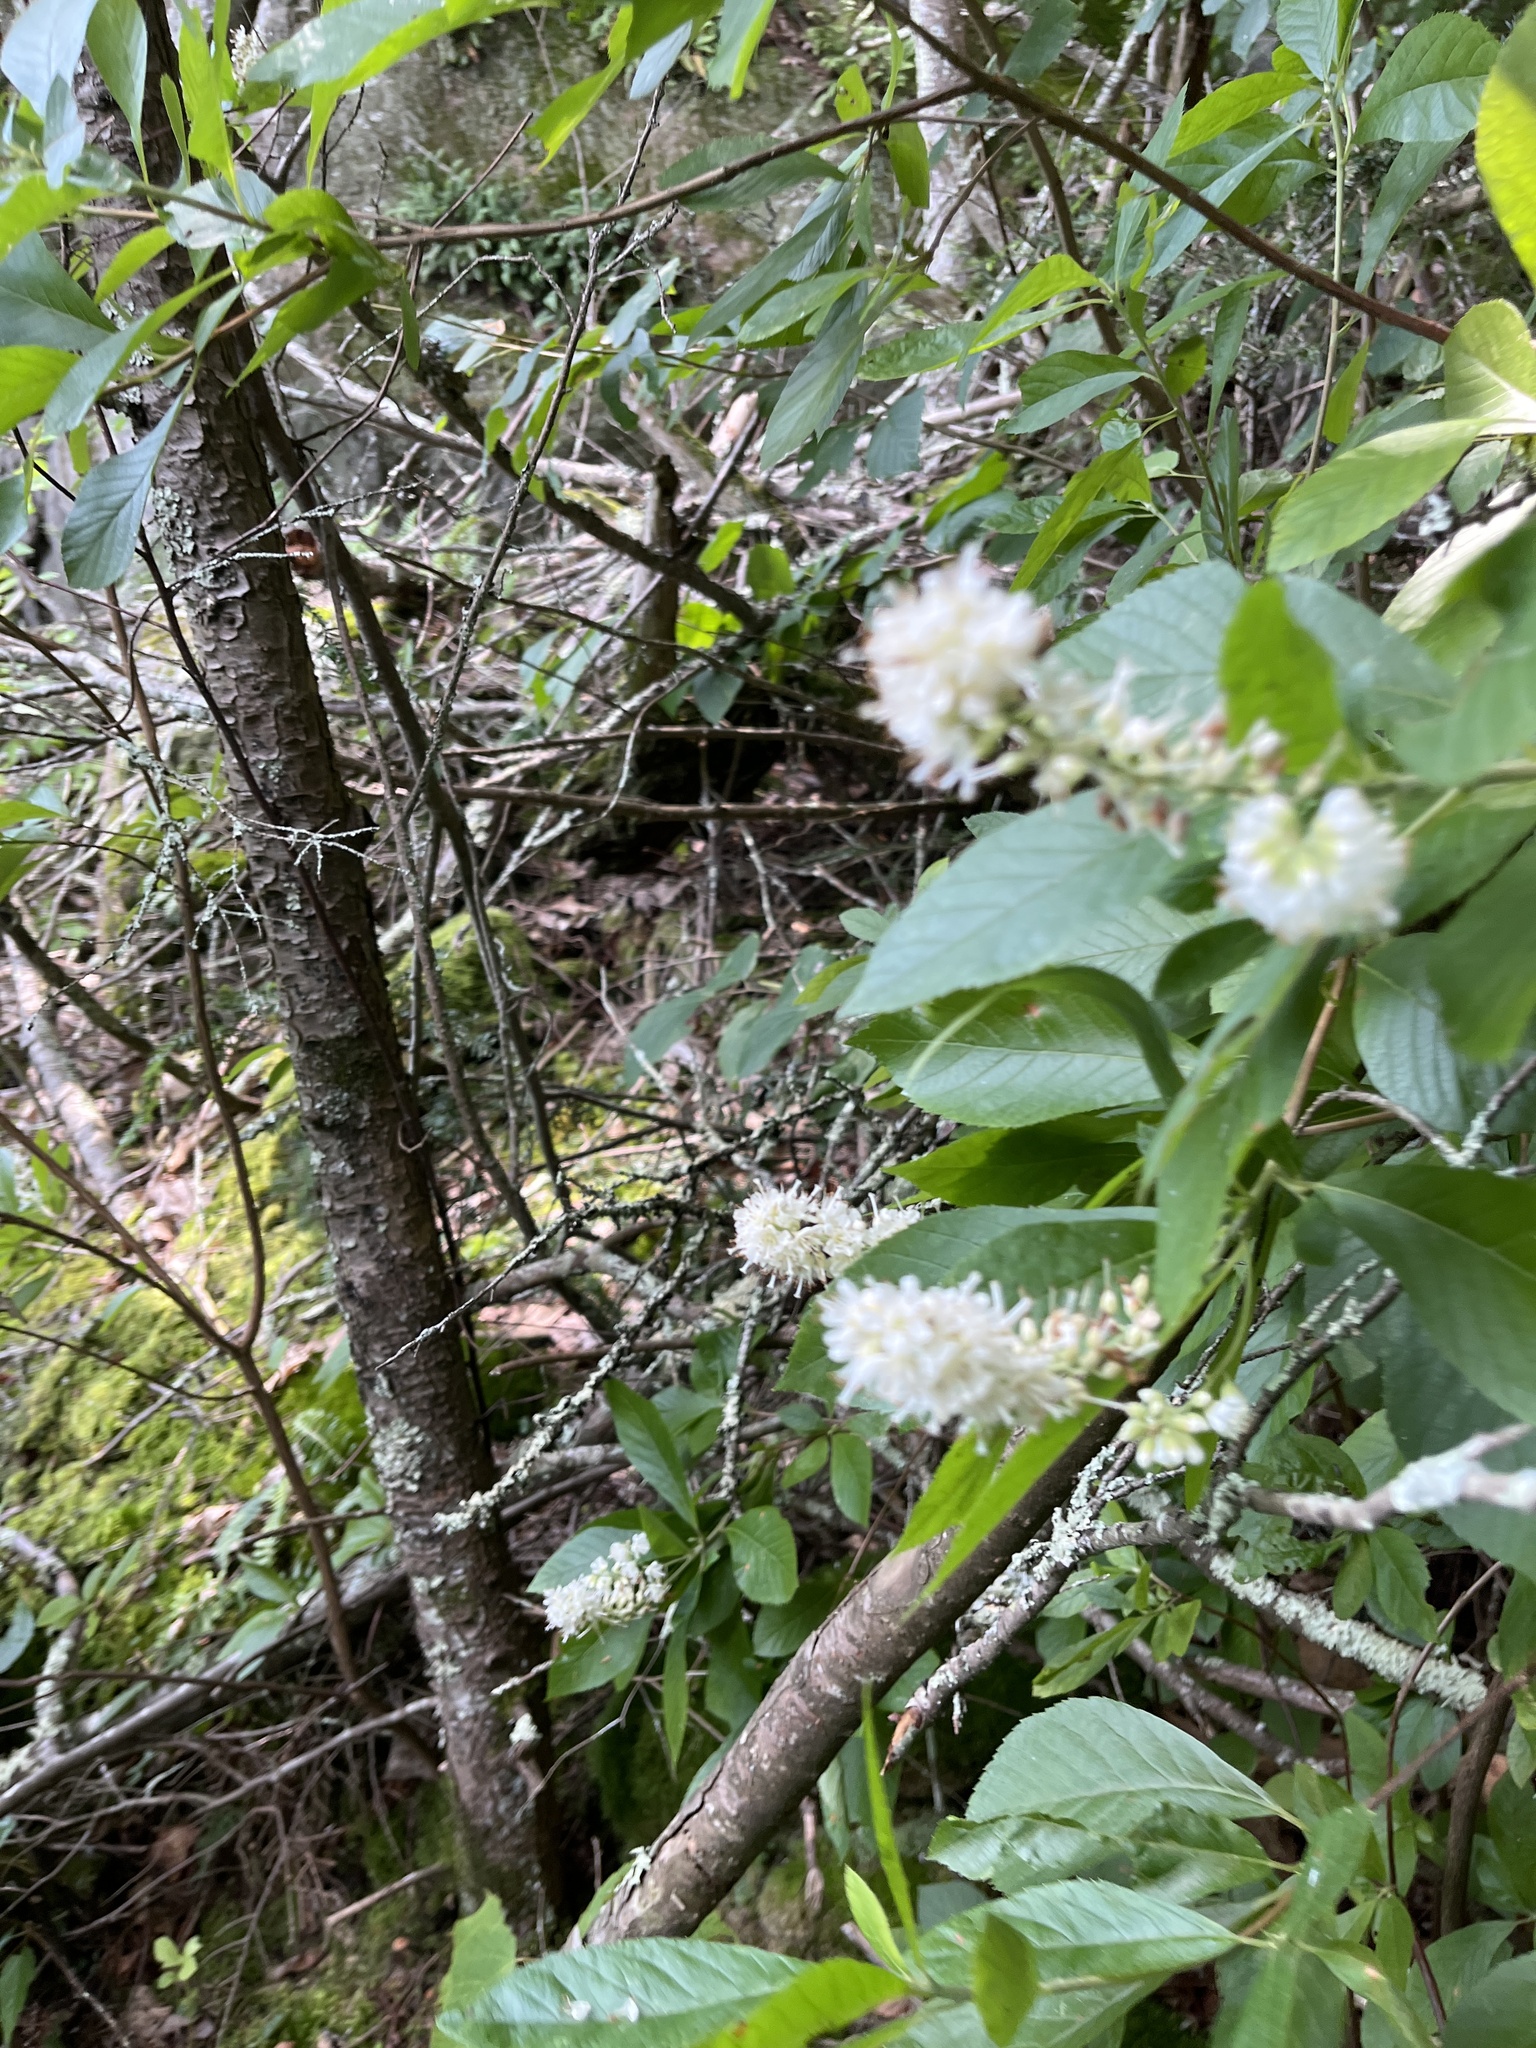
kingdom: Plantae
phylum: Tracheophyta
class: Magnoliopsida
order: Ericales
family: Clethraceae
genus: Clethra
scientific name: Clethra alnifolia
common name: Sweet pepperbush
